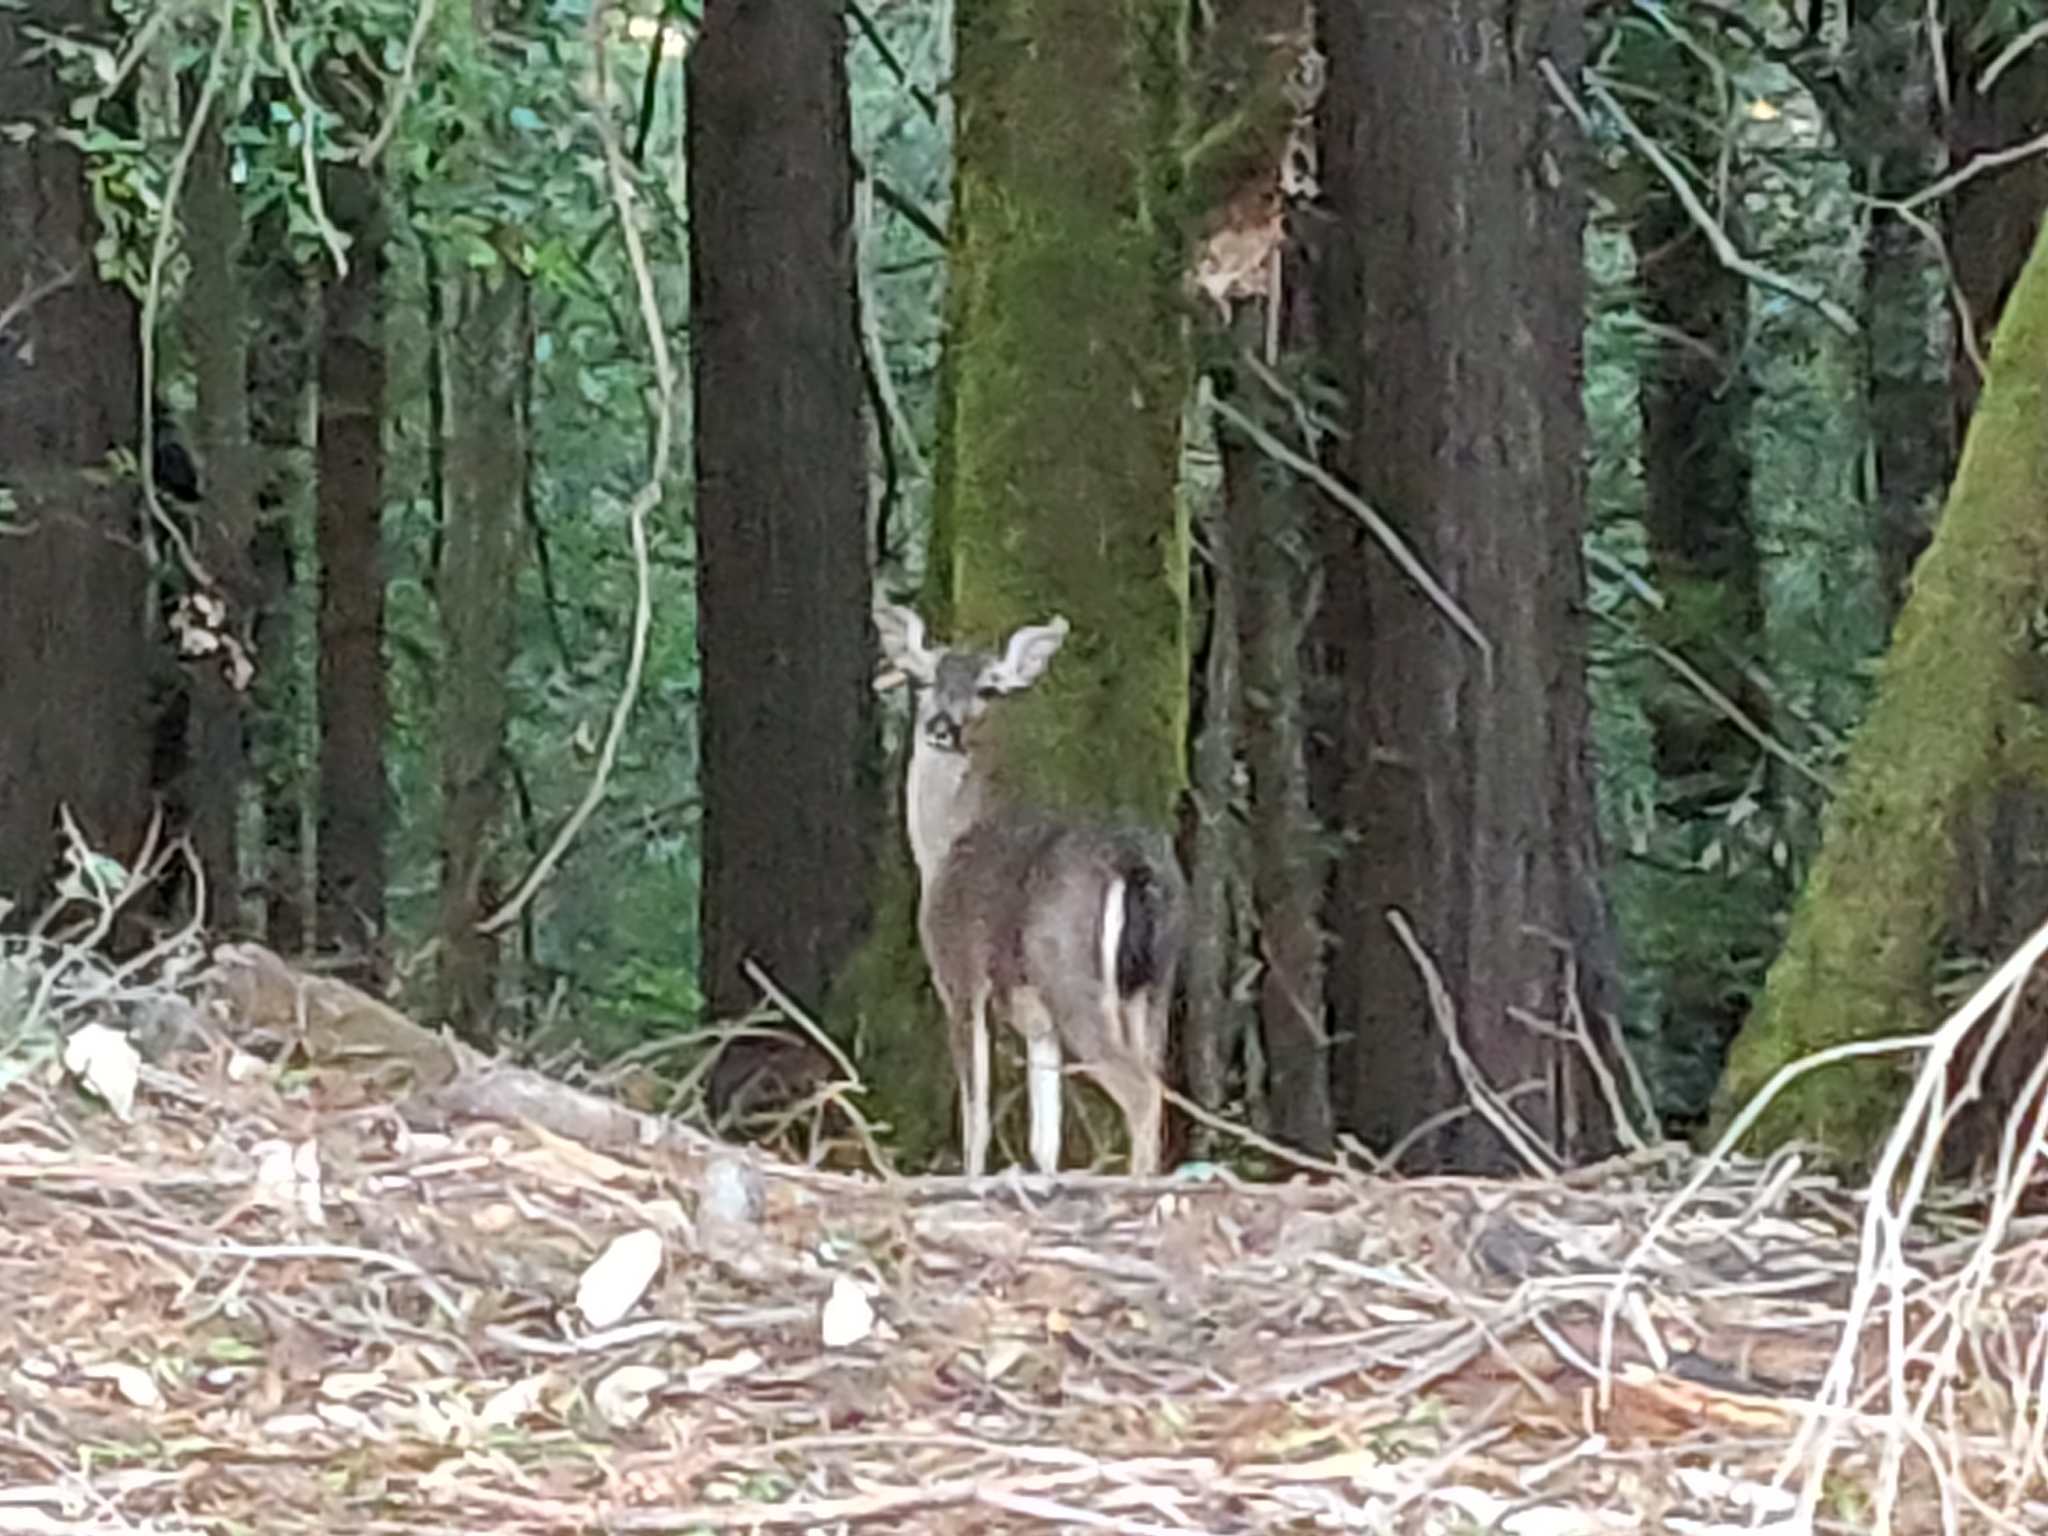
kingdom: Animalia
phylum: Chordata
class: Mammalia
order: Artiodactyla
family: Cervidae
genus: Odocoileus
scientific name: Odocoileus hemionus
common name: Mule deer
